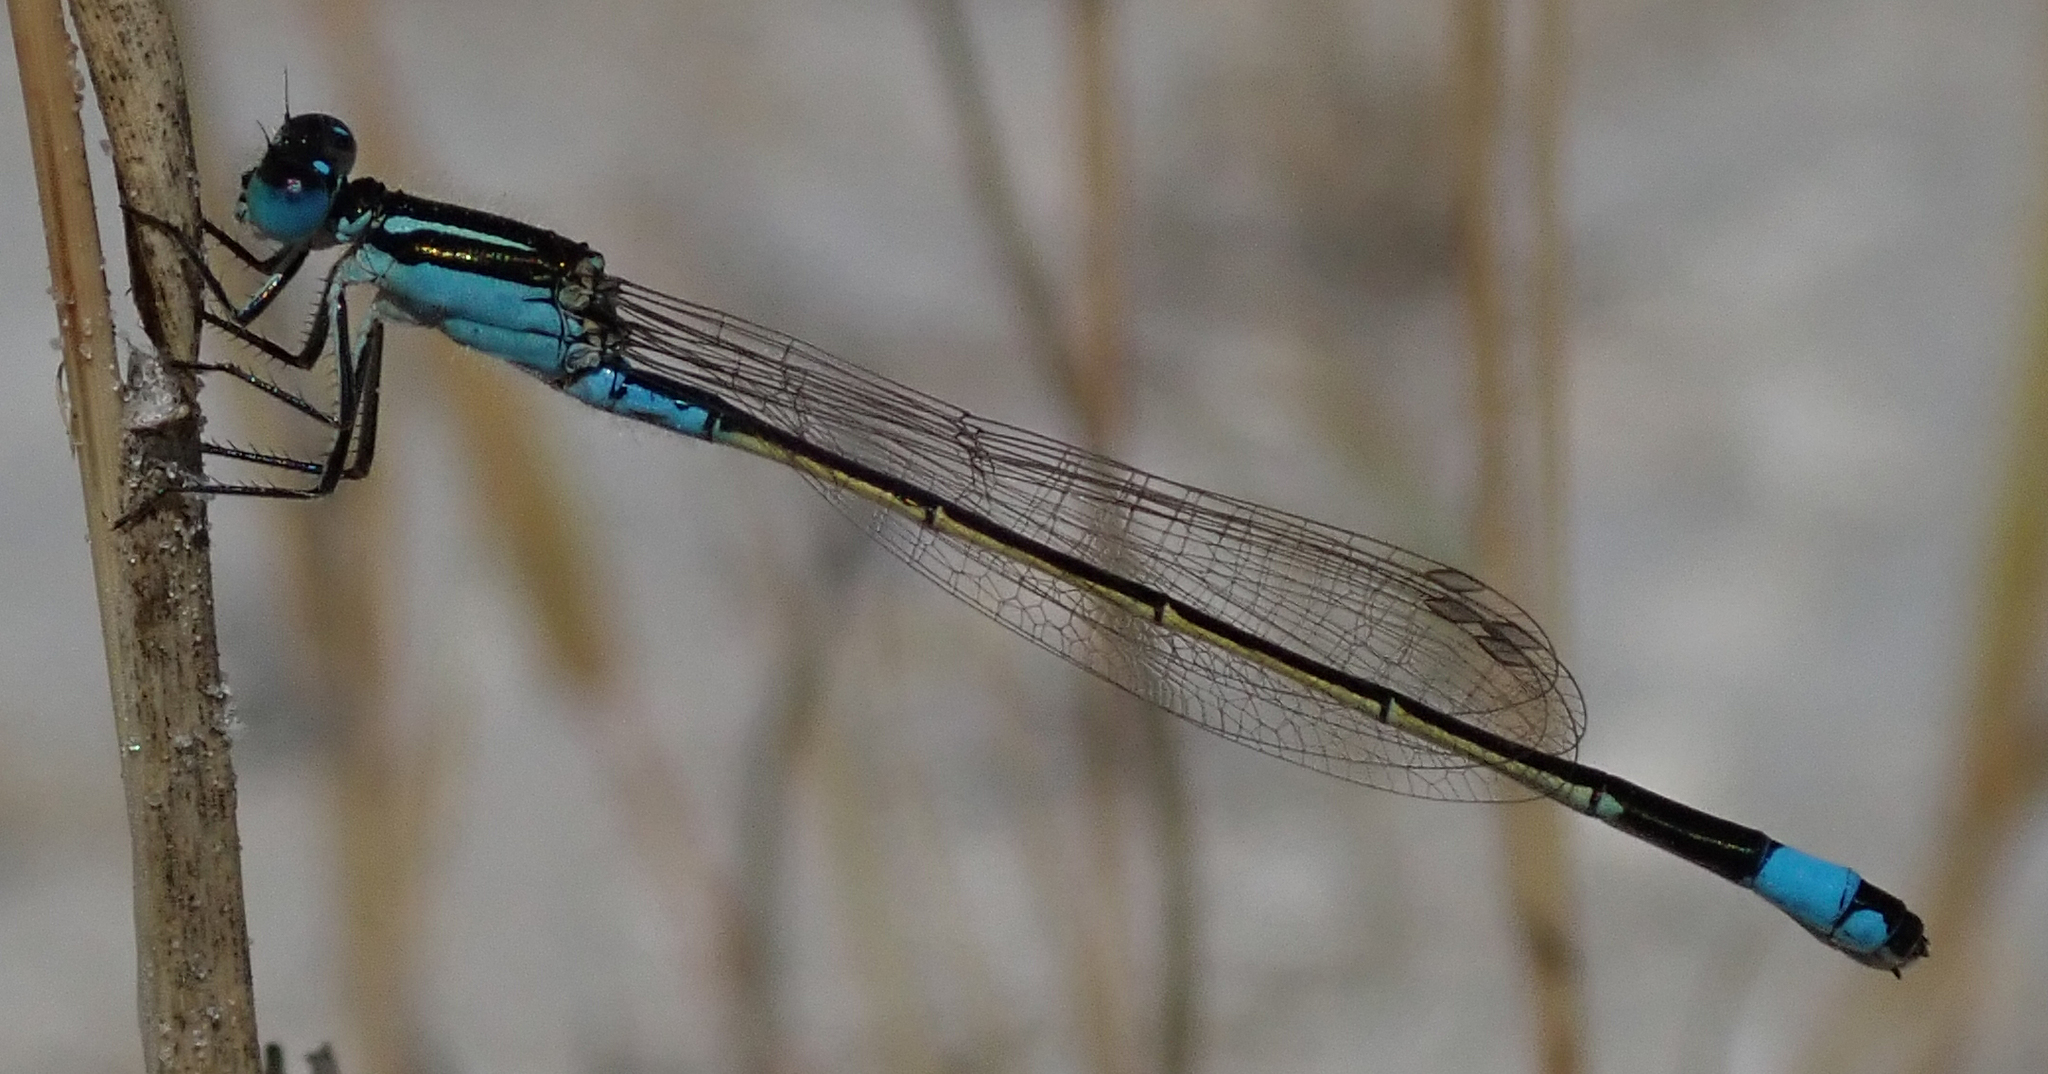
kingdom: Animalia
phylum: Arthropoda
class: Insecta
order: Odonata
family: Coenagrionidae
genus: Ischnura
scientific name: Ischnura senegalensis
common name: Tropical bluetail
